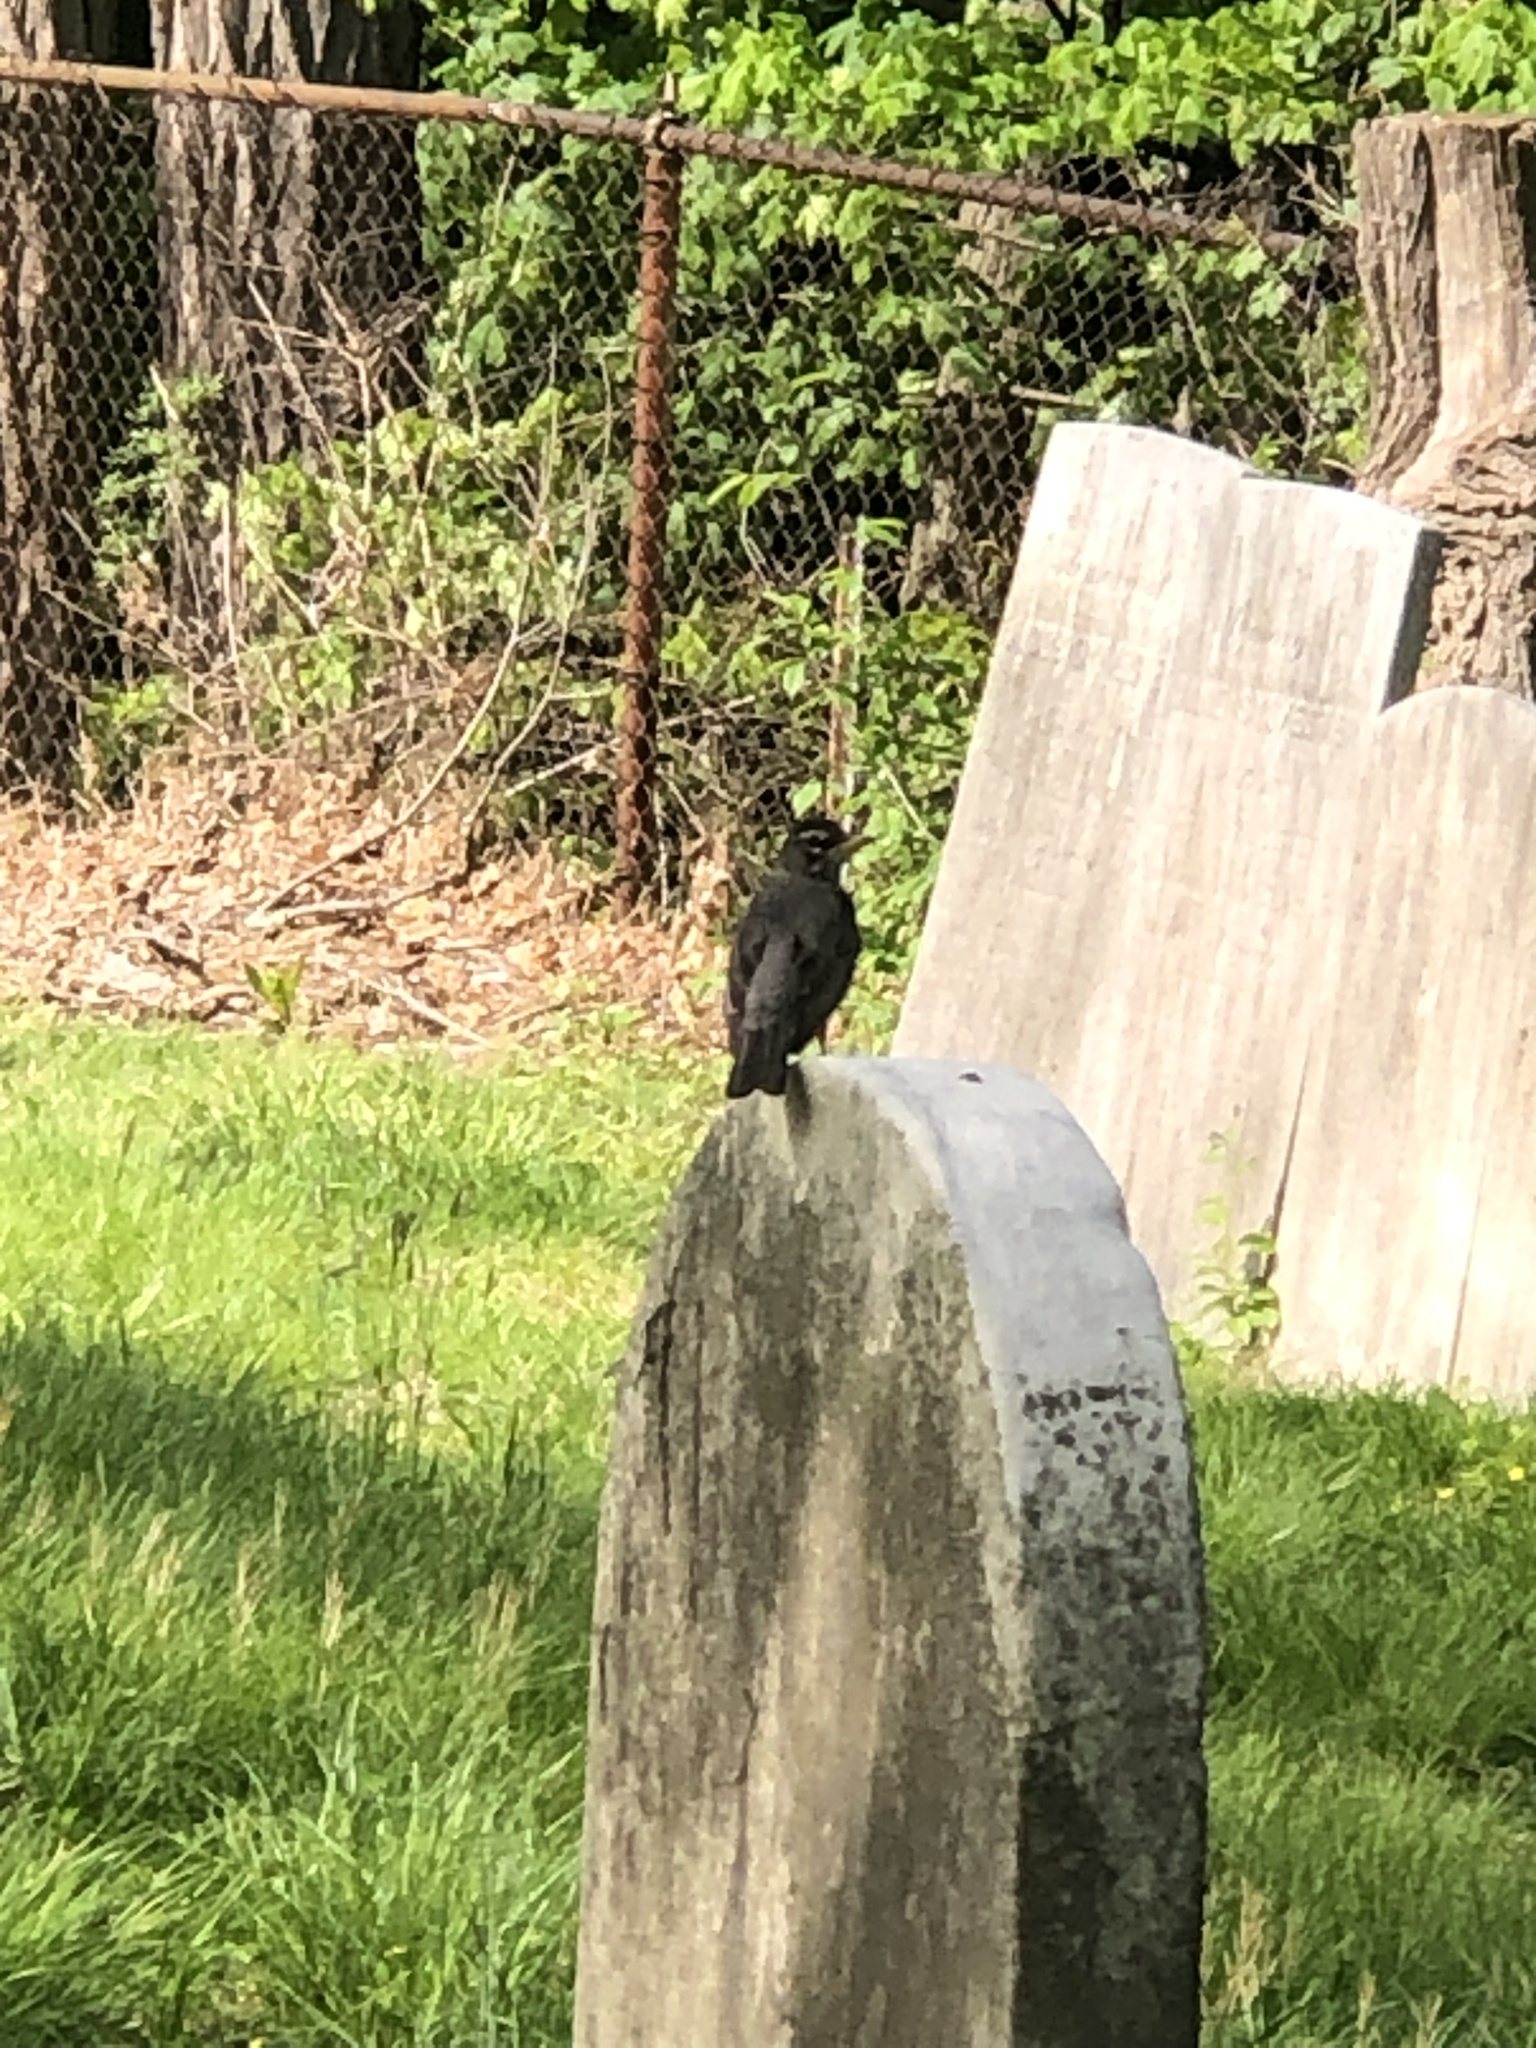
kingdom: Animalia
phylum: Chordata
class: Aves
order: Passeriformes
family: Turdidae
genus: Turdus
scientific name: Turdus migratorius
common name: American robin
